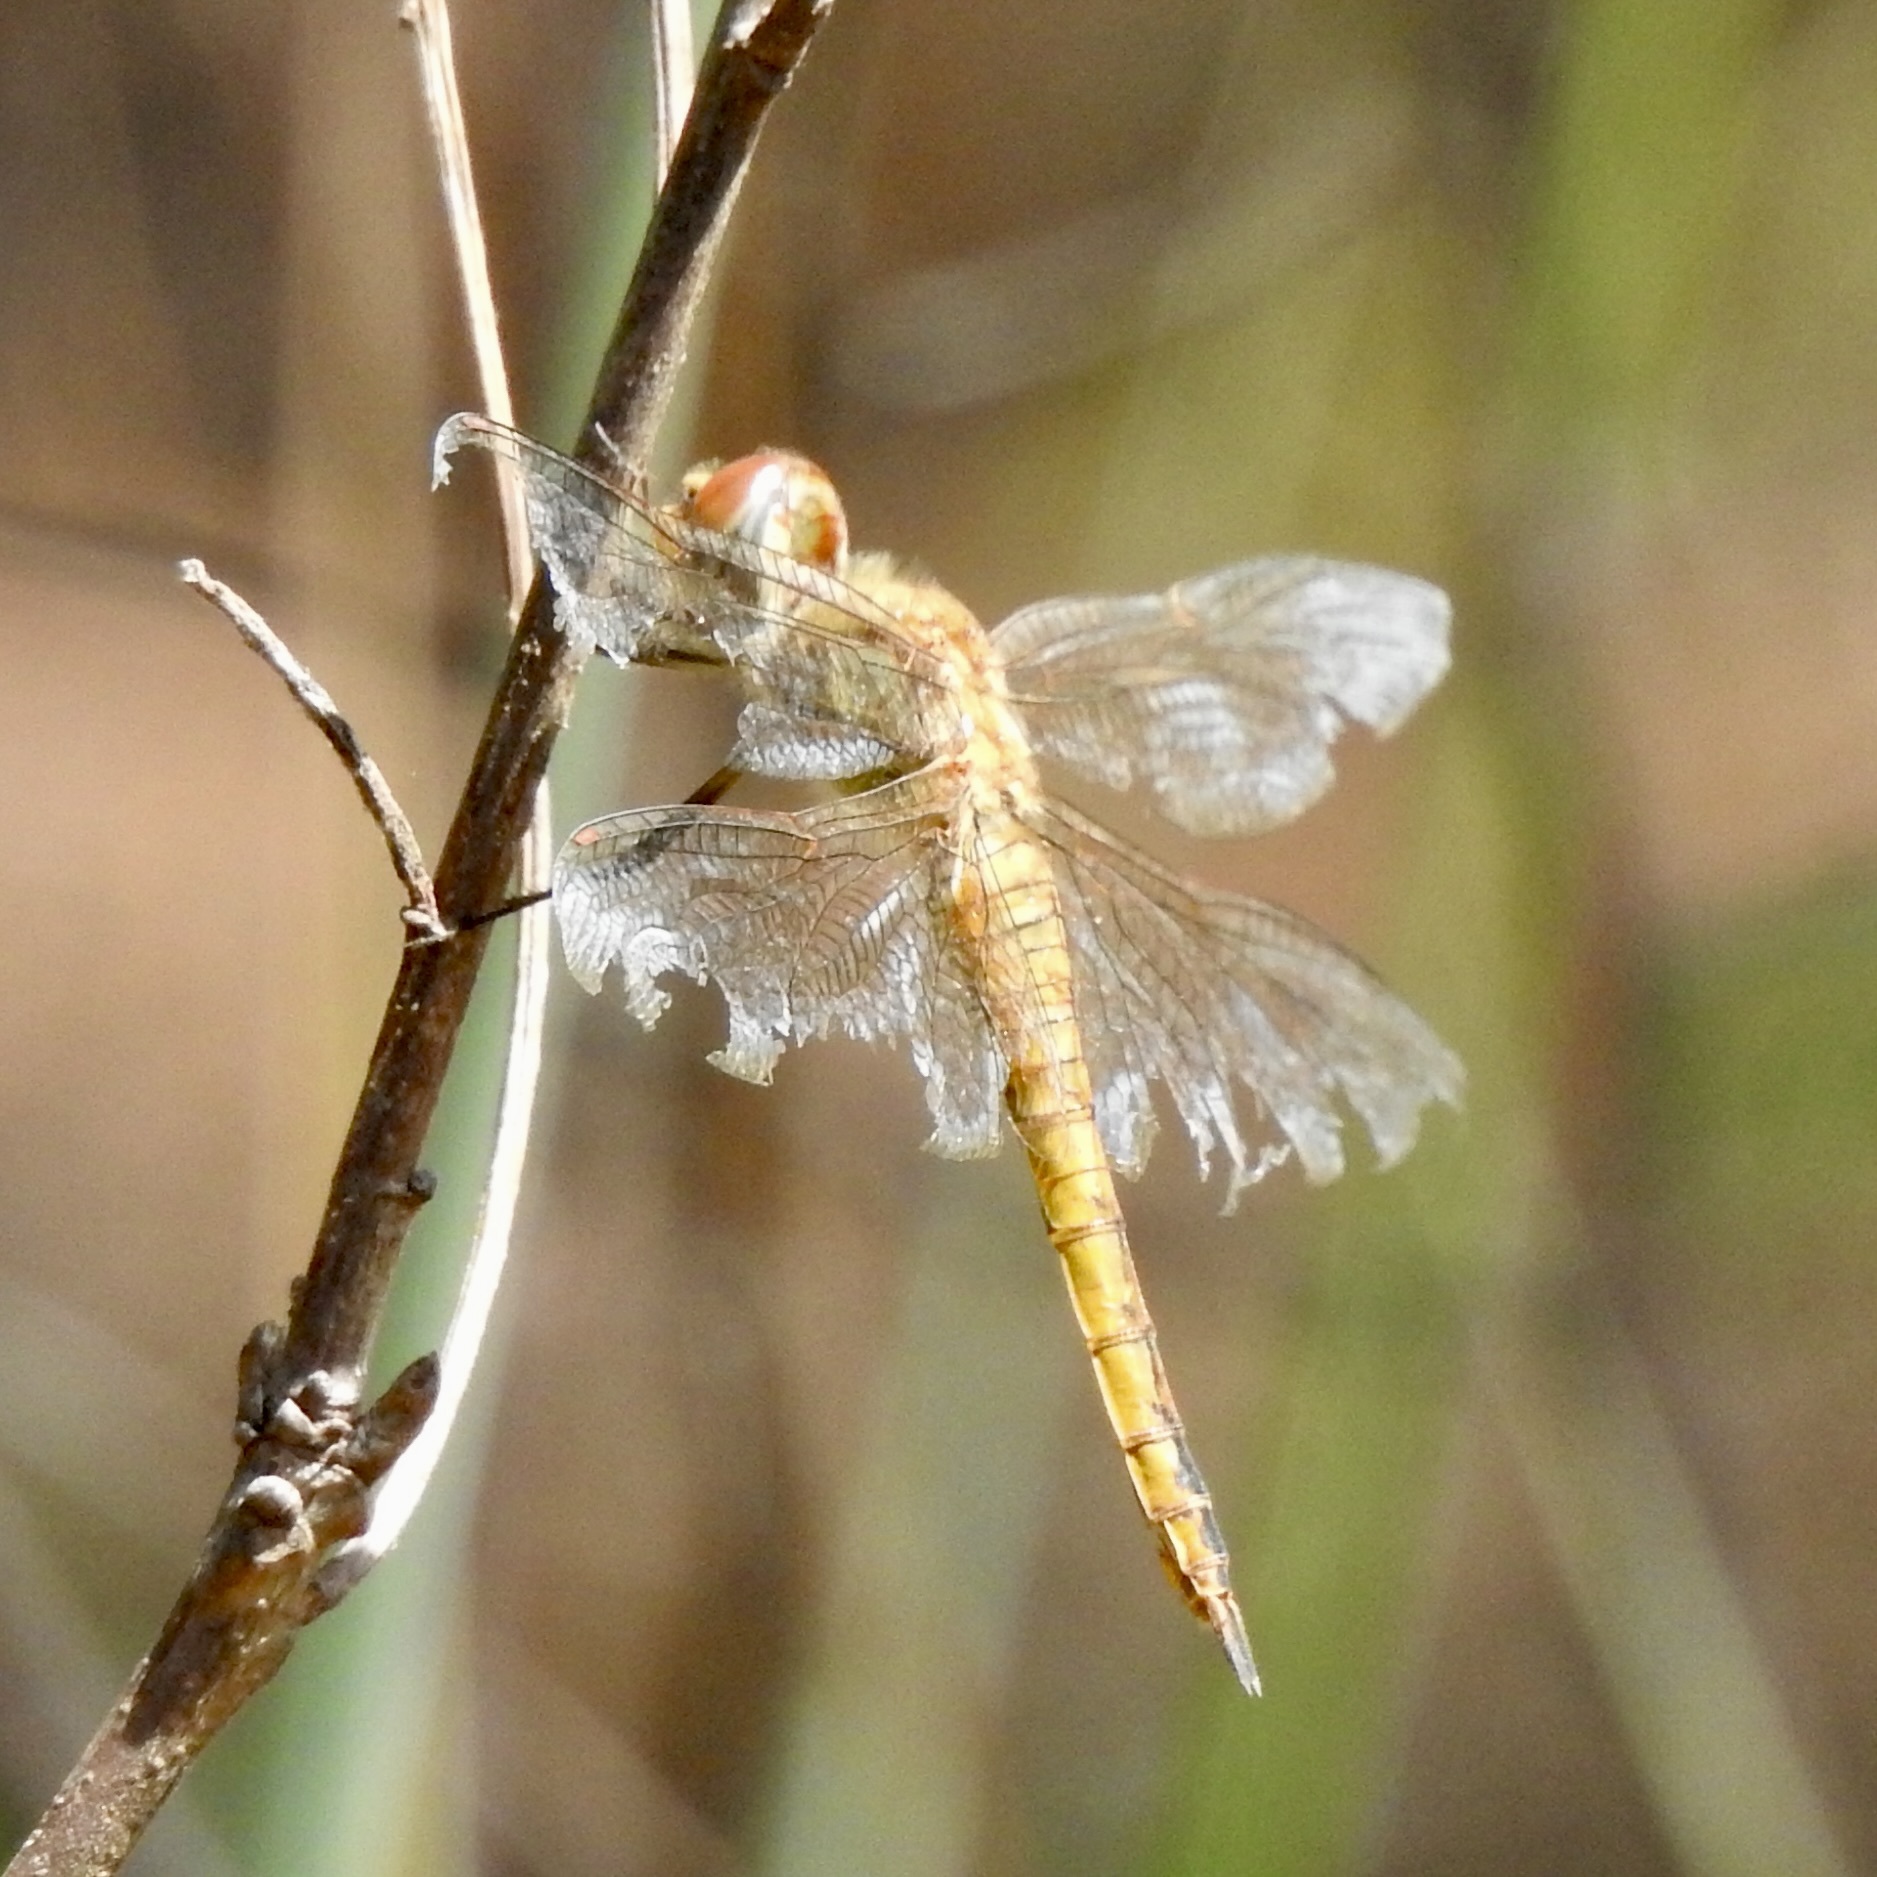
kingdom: Animalia
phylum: Arthropoda
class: Insecta
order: Odonata
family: Libellulidae
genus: Pantala
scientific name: Pantala flavescens
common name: Wandering glider
